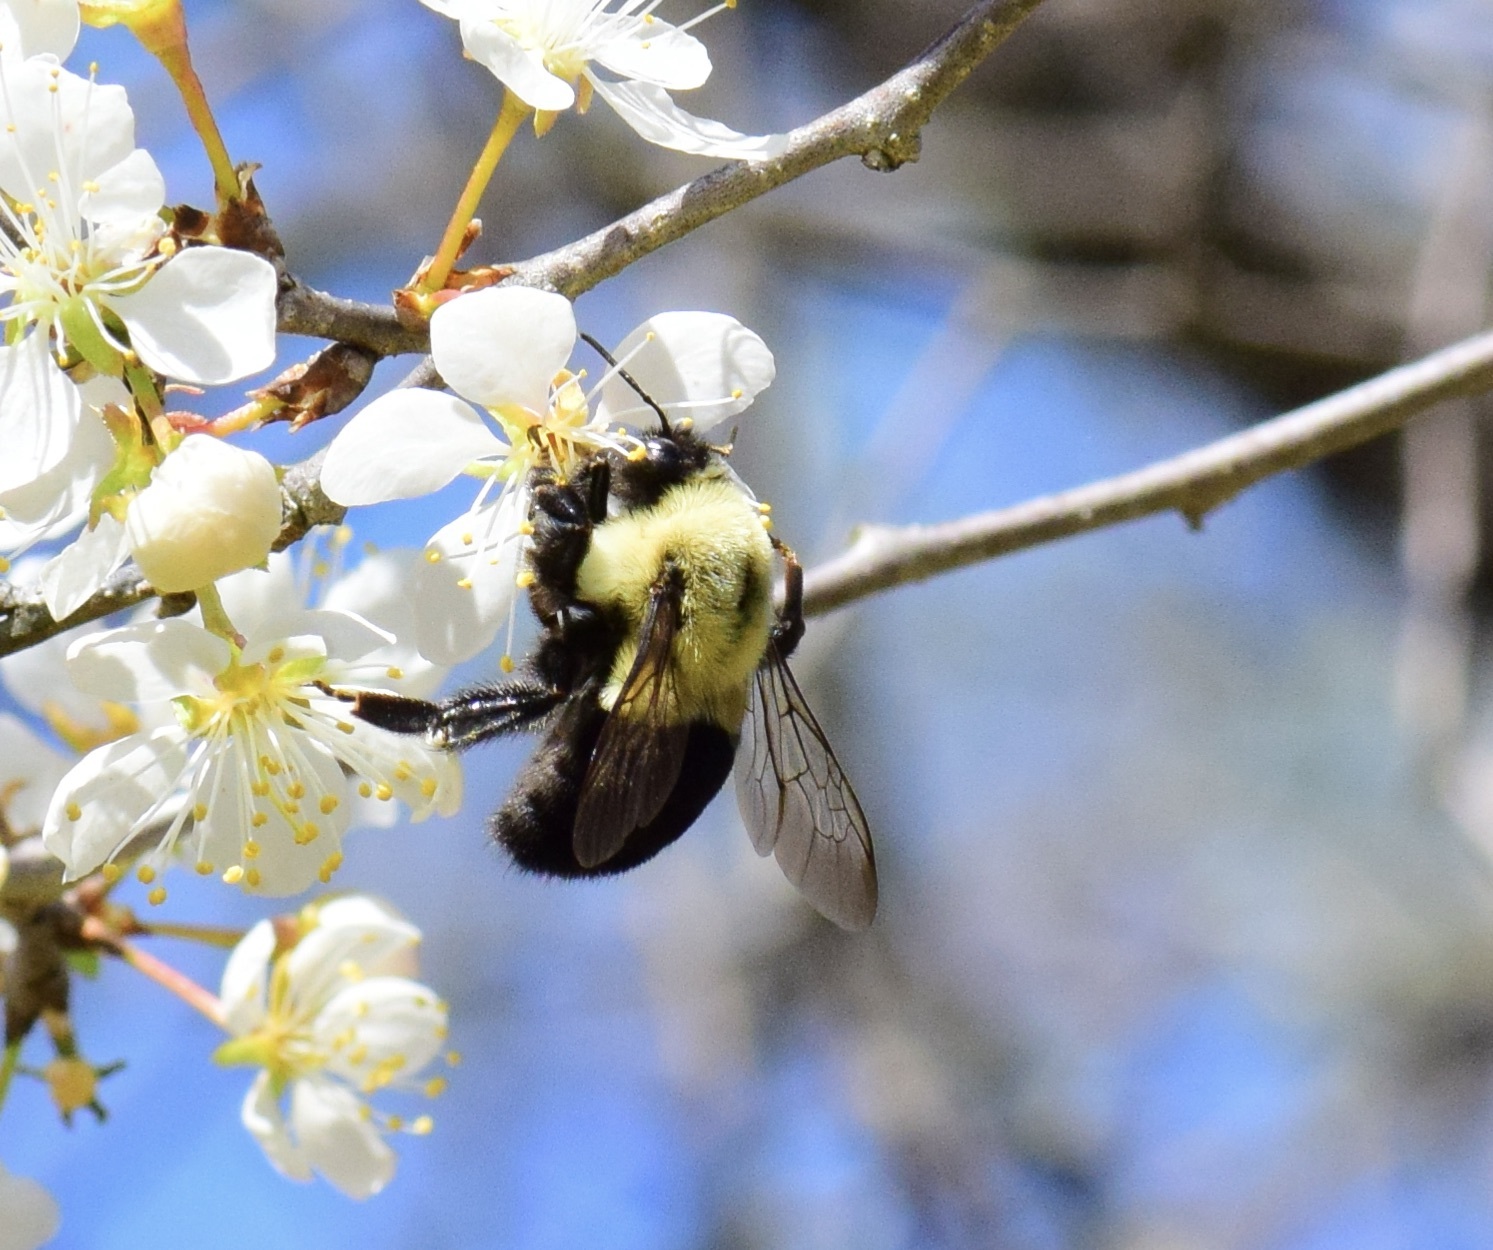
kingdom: Animalia
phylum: Arthropoda
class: Insecta
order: Hymenoptera
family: Apidae
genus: Bombus
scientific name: Bombus impatiens
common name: Common eastern bumble bee
